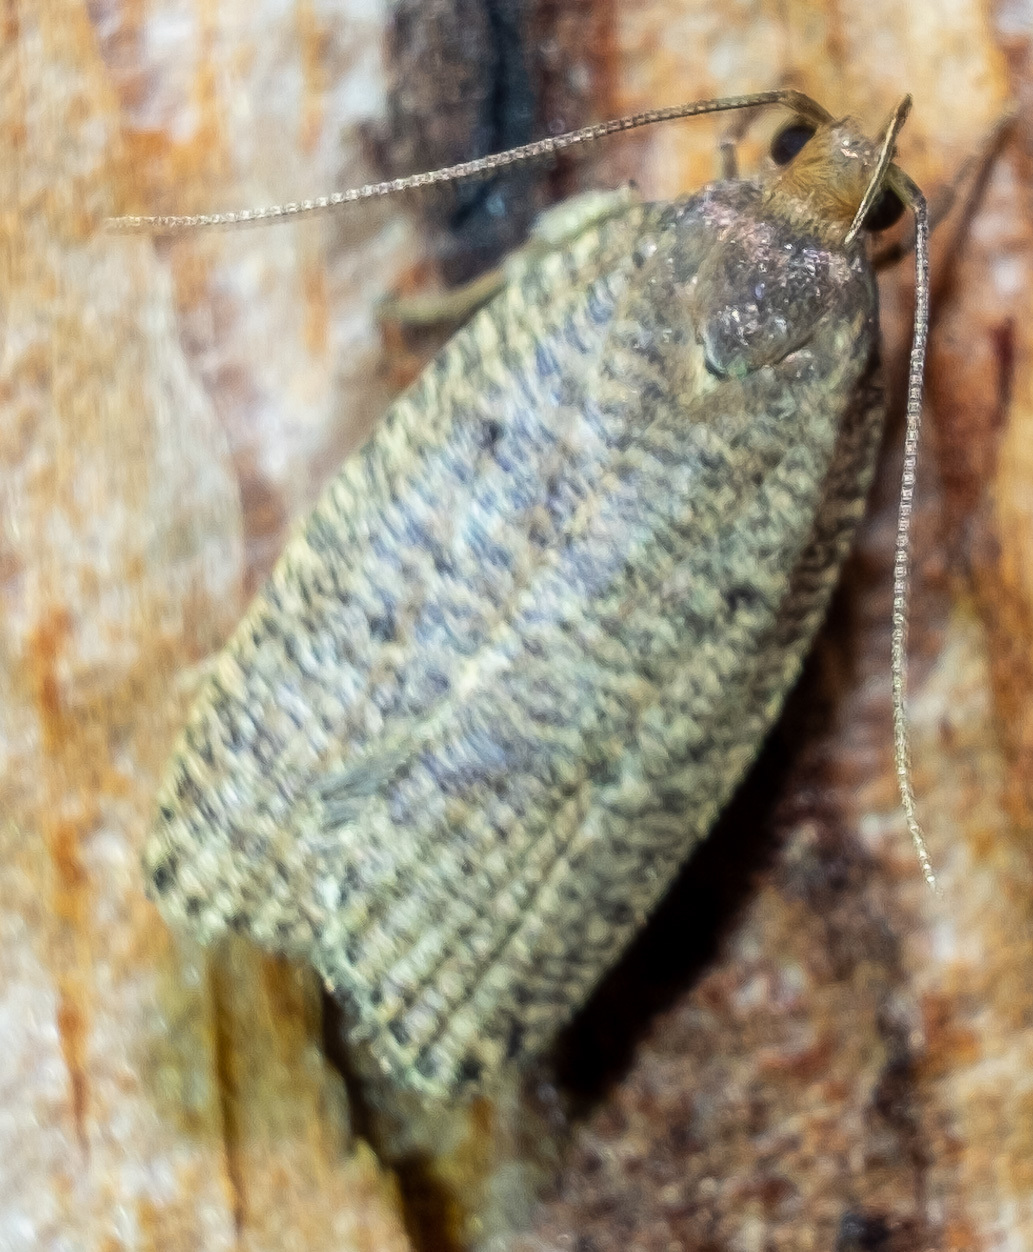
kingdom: Animalia
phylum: Arthropoda
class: Insecta
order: Lepidoptera
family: Depressariidae
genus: Psilocorsis
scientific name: Psilocorsis reflexella
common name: Dotted leaftier moth
